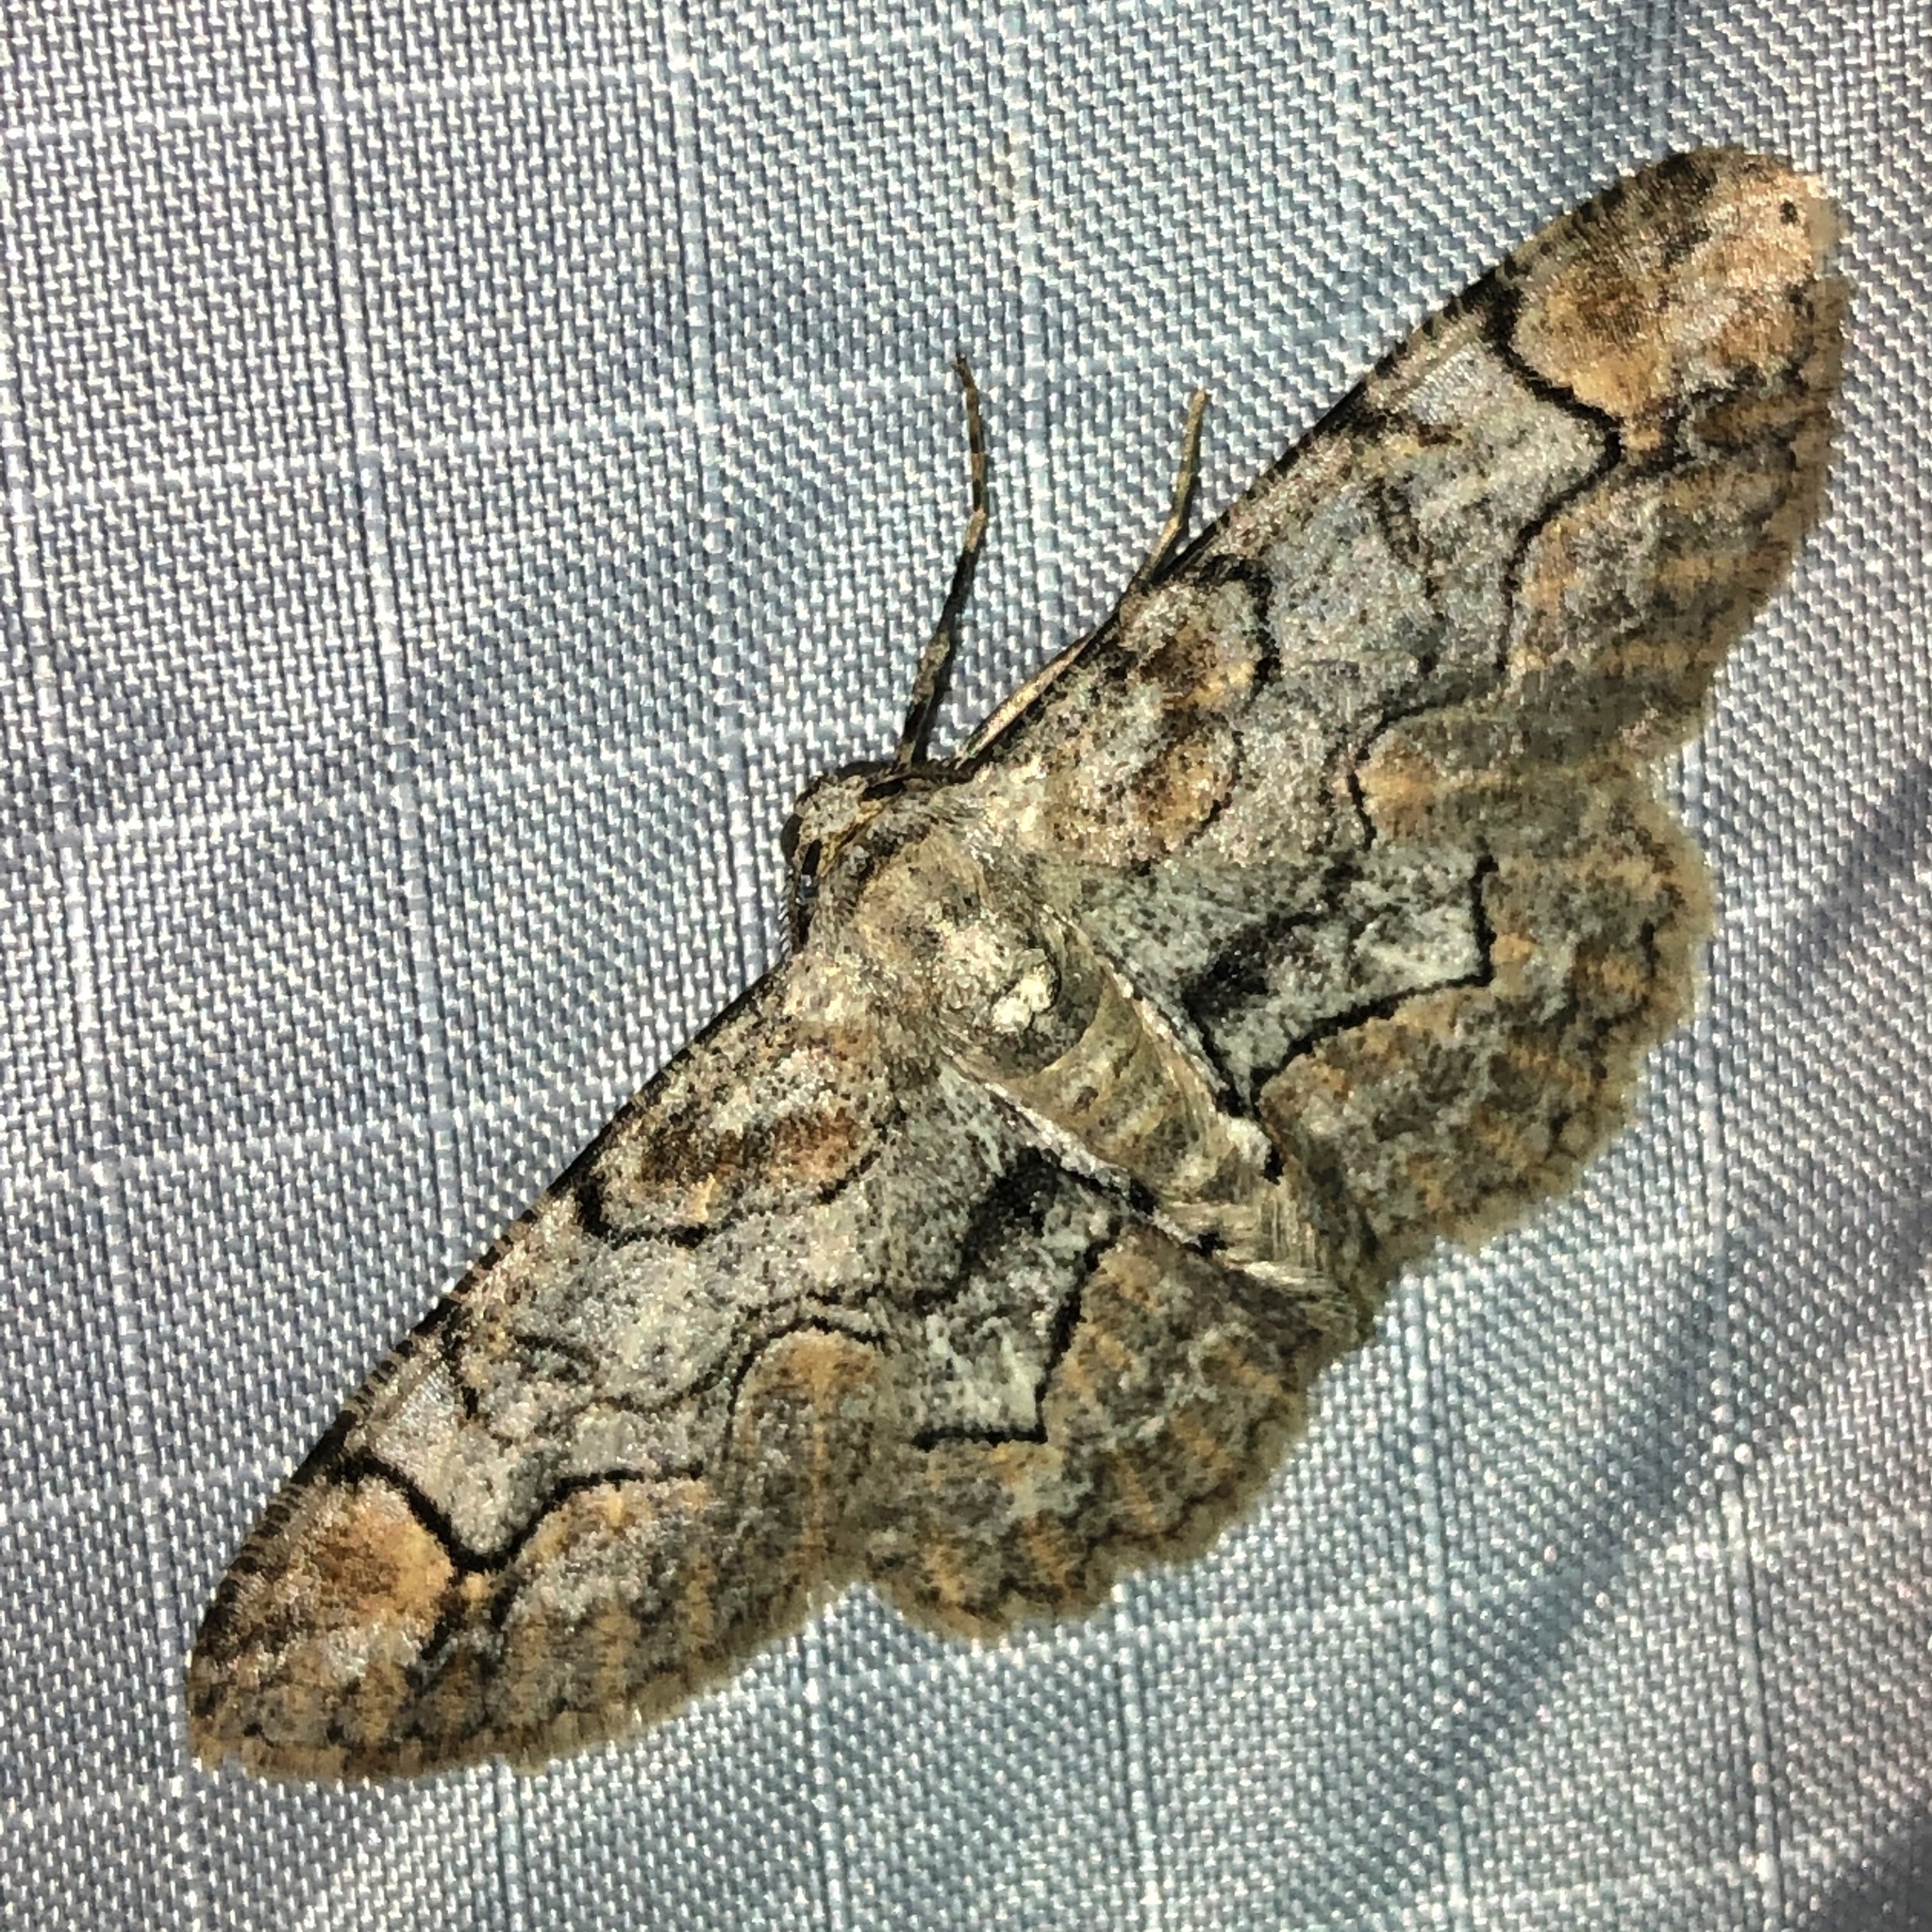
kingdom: Animalia
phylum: Arthropoda
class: Insecta
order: Lepidoptera
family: Geometridae
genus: Iridopsis
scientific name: Iridopsis larvaria
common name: Bent-line gray
